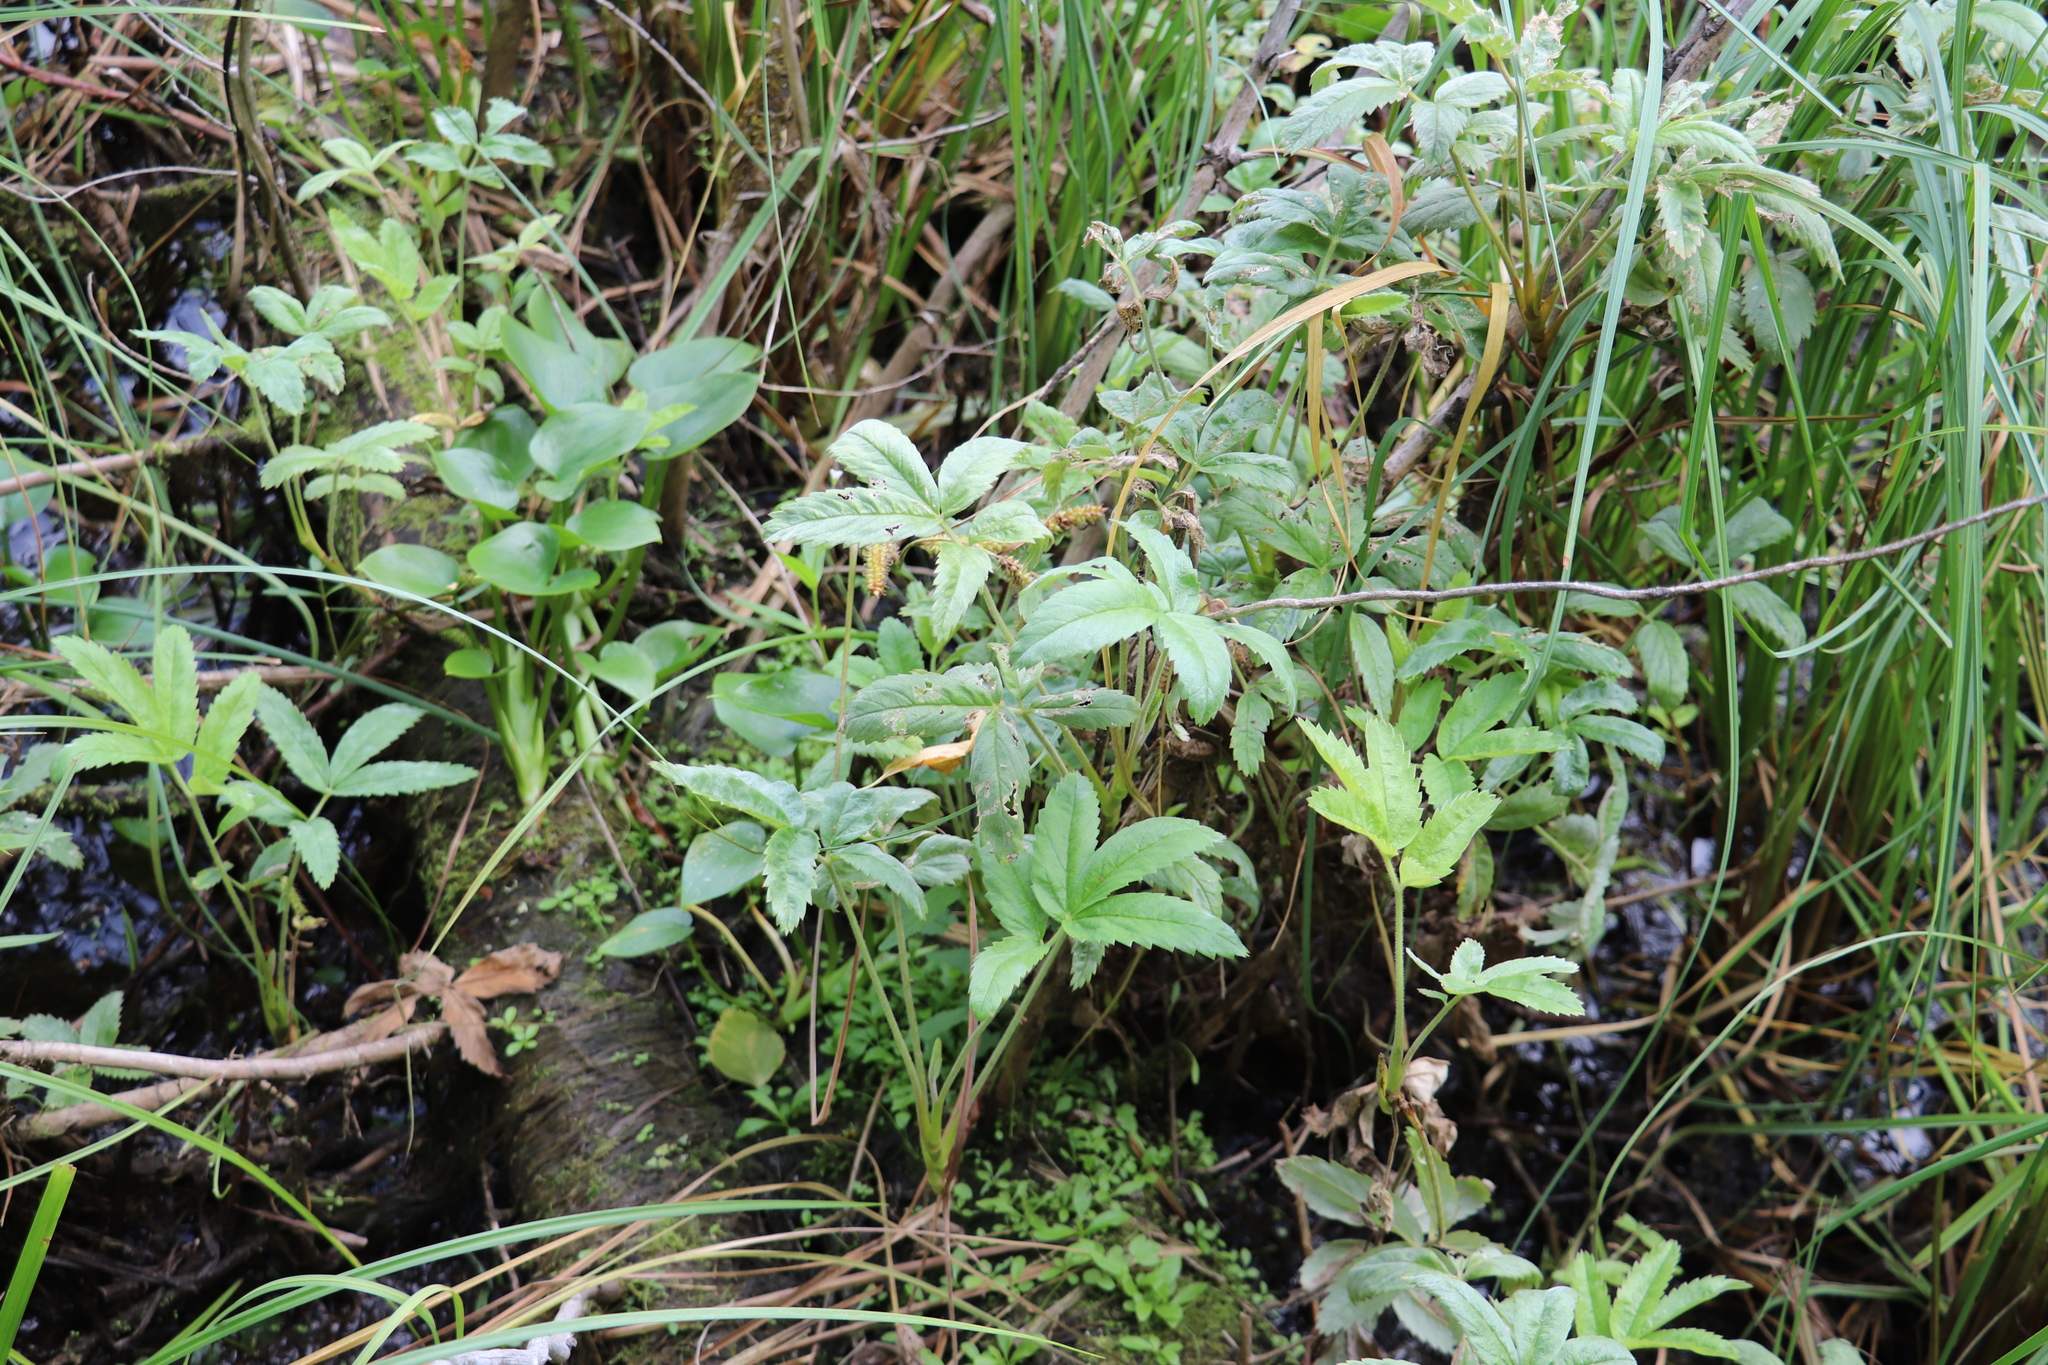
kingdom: Plantae
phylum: Tracheophyta
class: Magnoliopsida
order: Rosales
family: Rosaceae
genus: Comarum
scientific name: Comarum palustre
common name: Marsh cinquefoil
